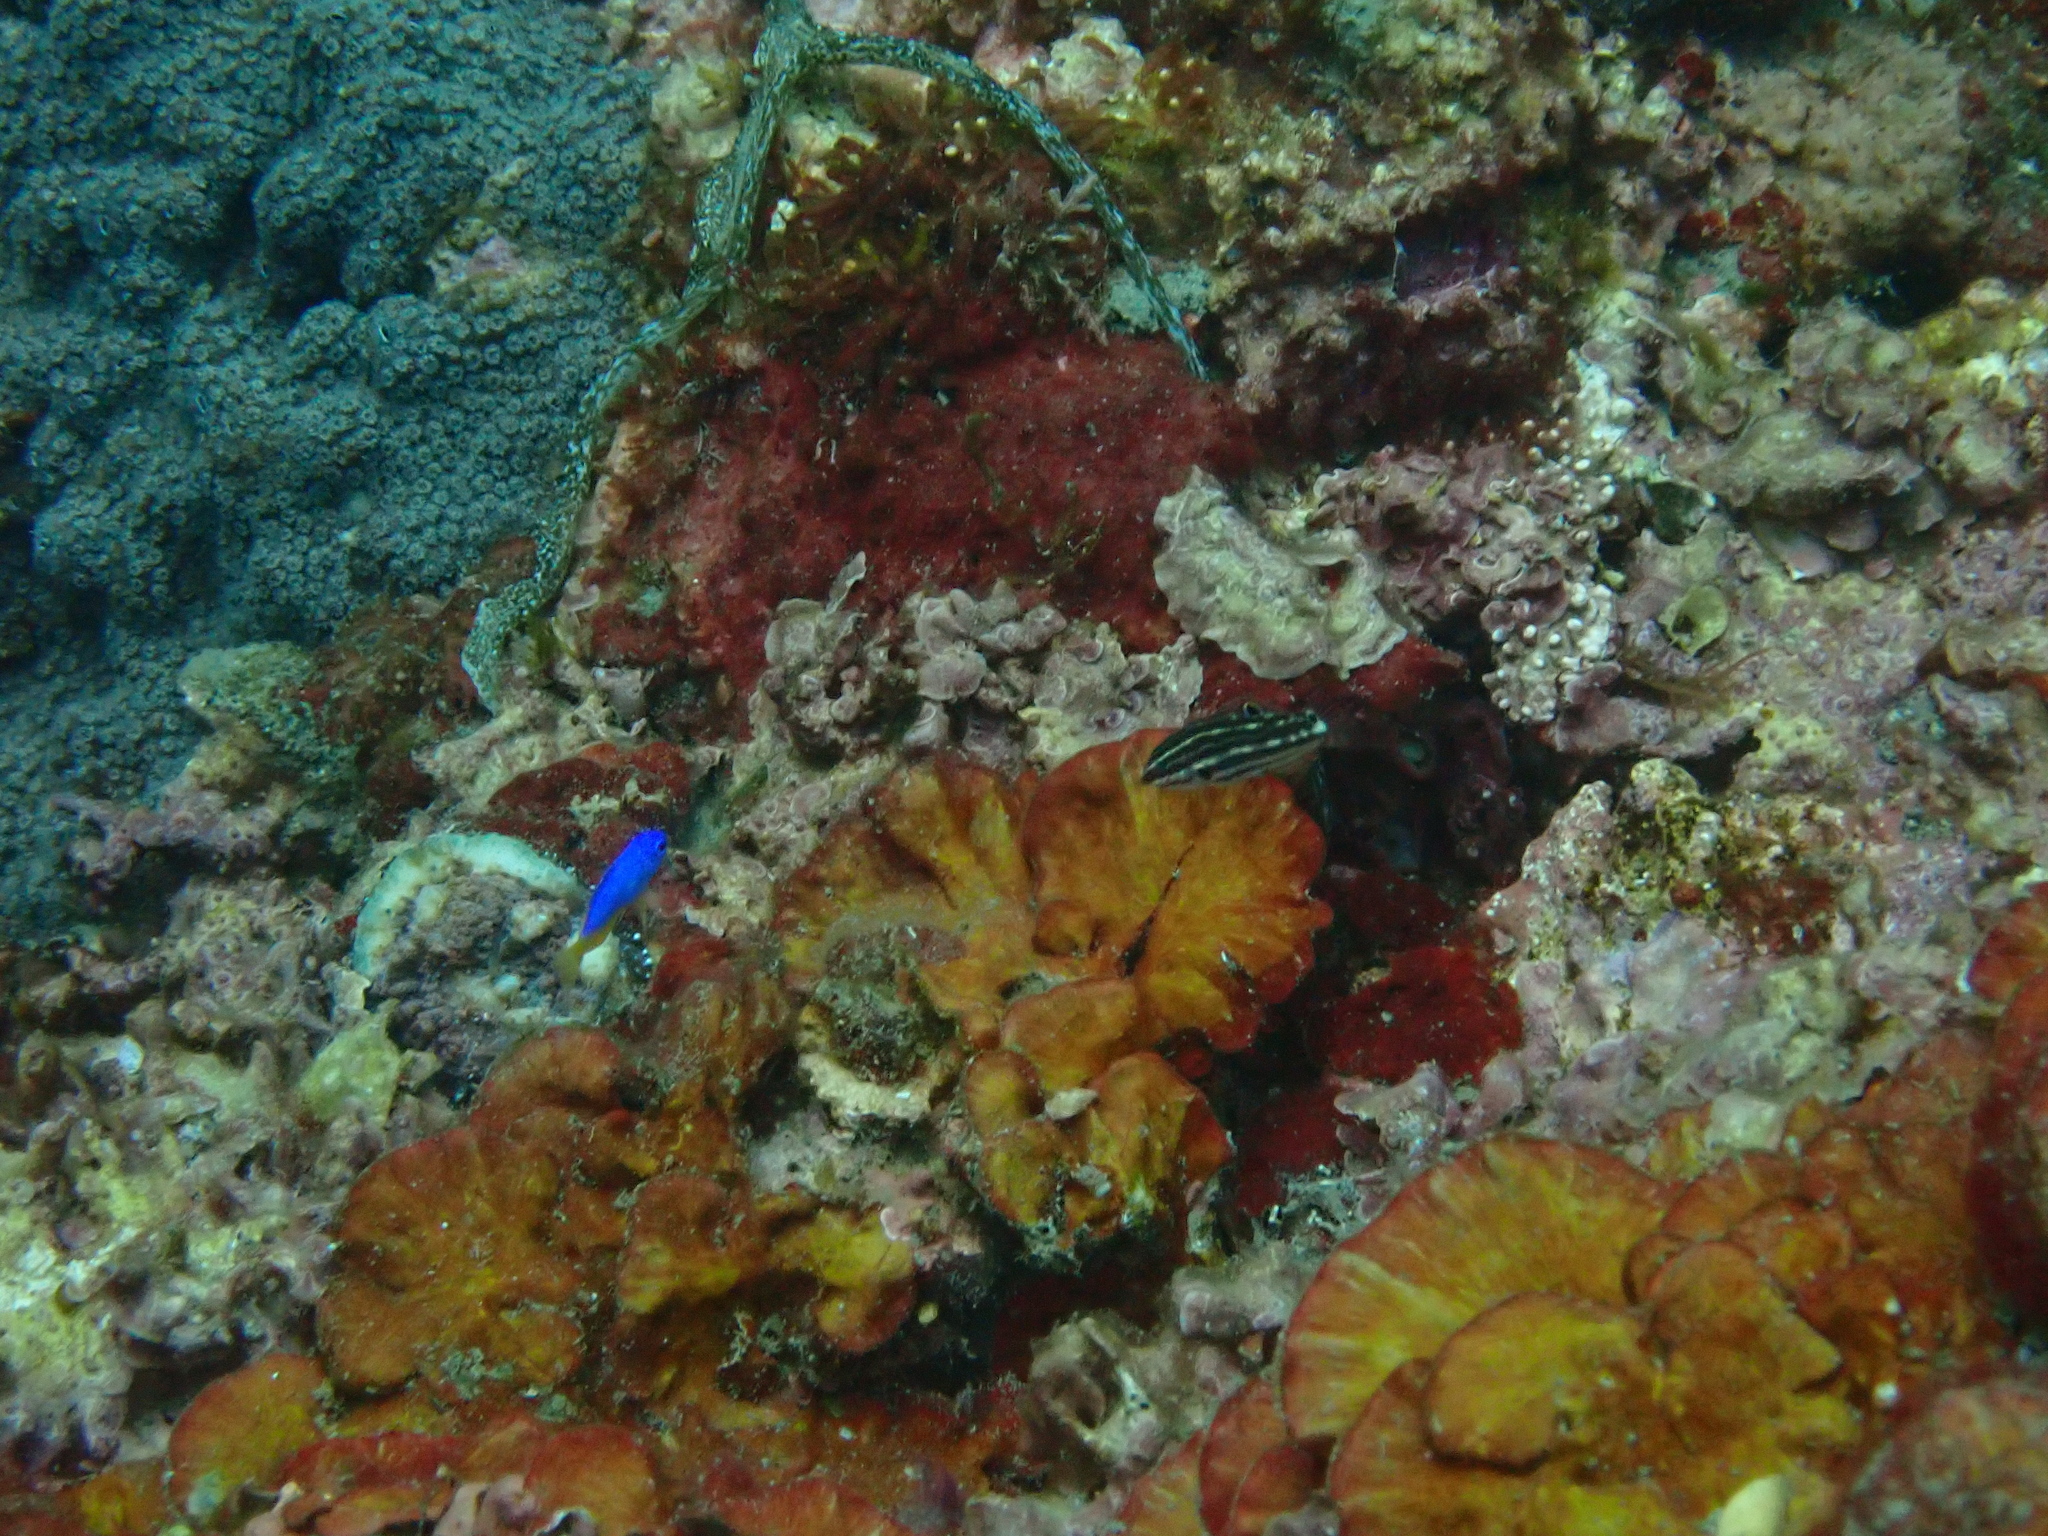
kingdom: Animalia
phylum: Chordata
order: Perciformes
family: Labridae
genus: Halichoeres
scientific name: Halichoeres
